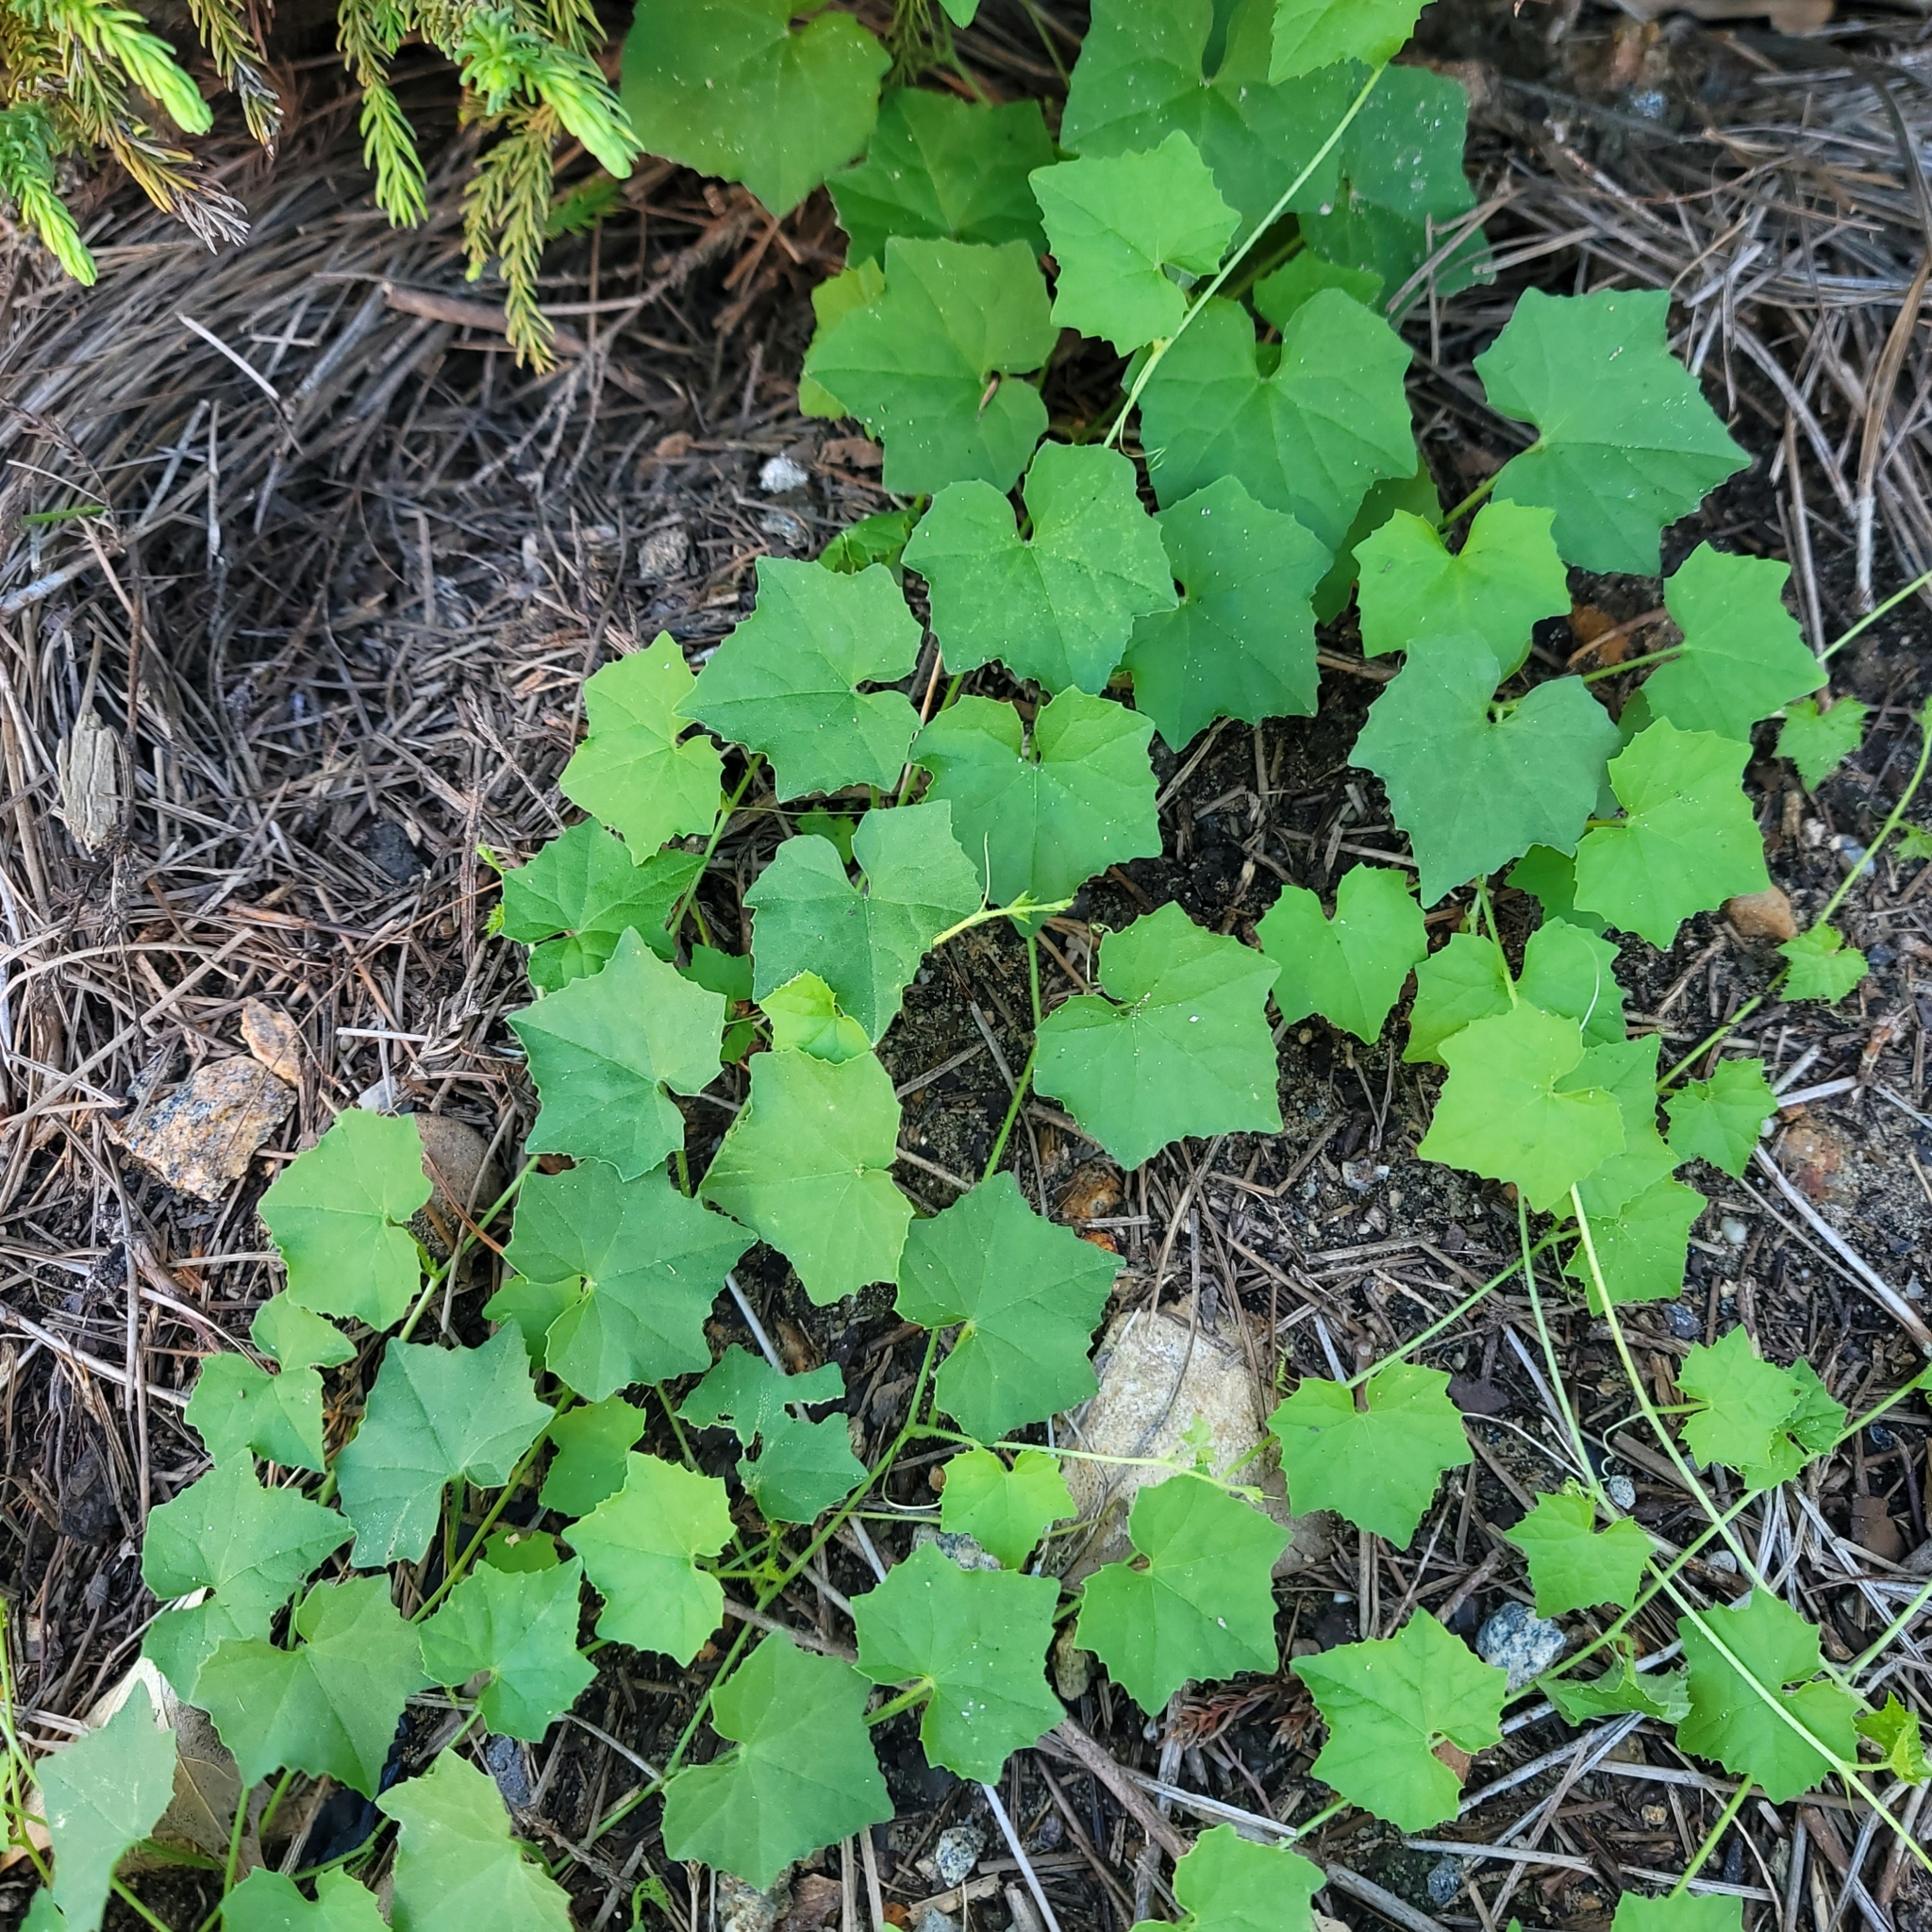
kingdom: Plantae
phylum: Tracheophyta
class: Magnoliopsida
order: Cucurbitales
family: Cucurbitaceae
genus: Melothria
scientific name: Melothria pendula
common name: Creeping-cucumber
